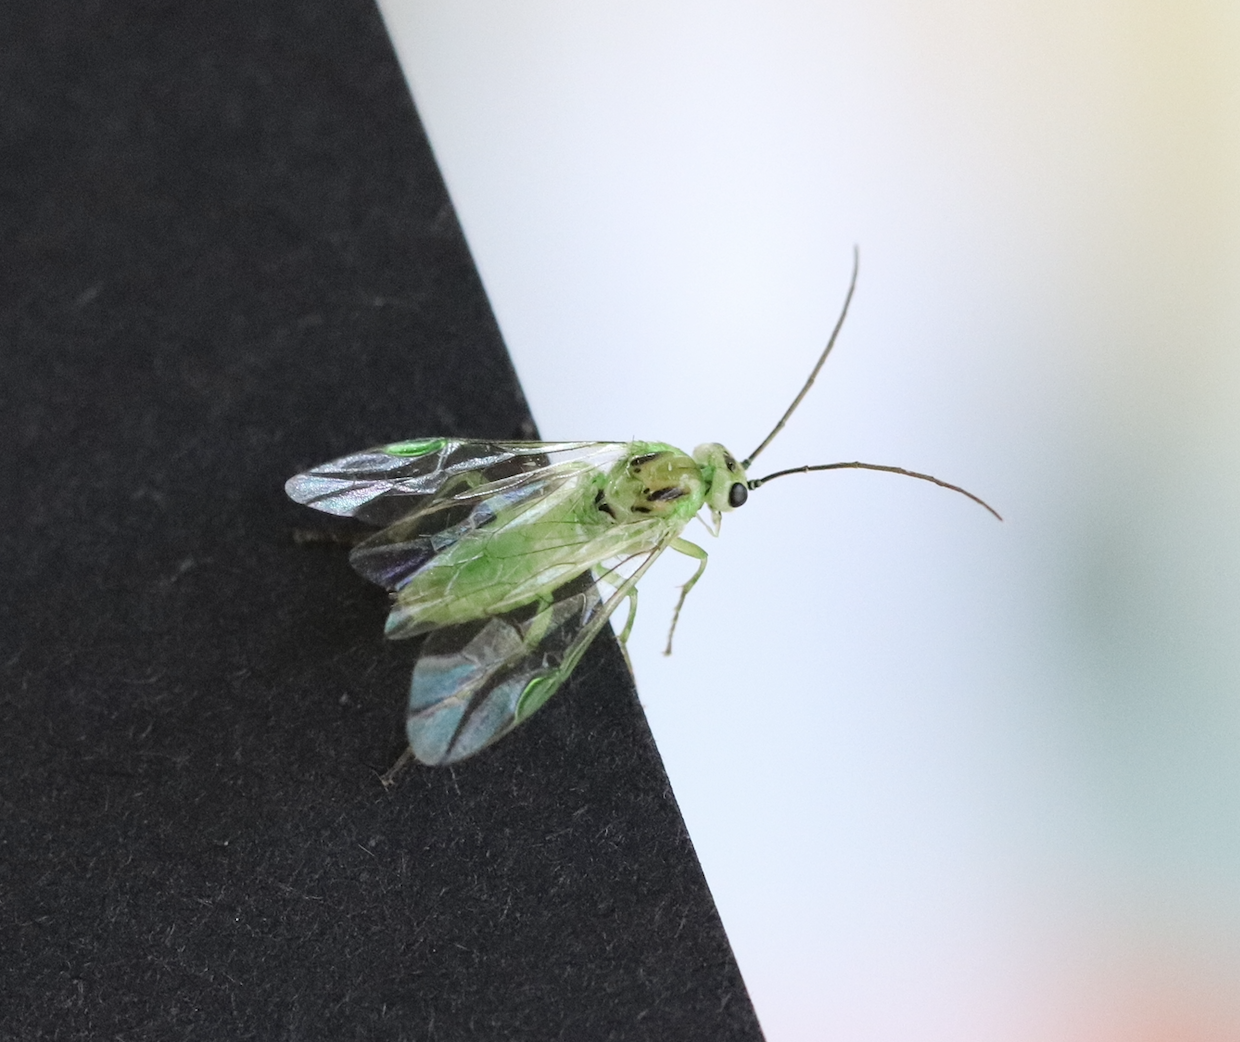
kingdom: Animalia
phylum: Arthropoda
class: Insecta
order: Hymenoptera
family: Tenthredinidae
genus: Tenthredo
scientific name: Tenthredo olivacea
